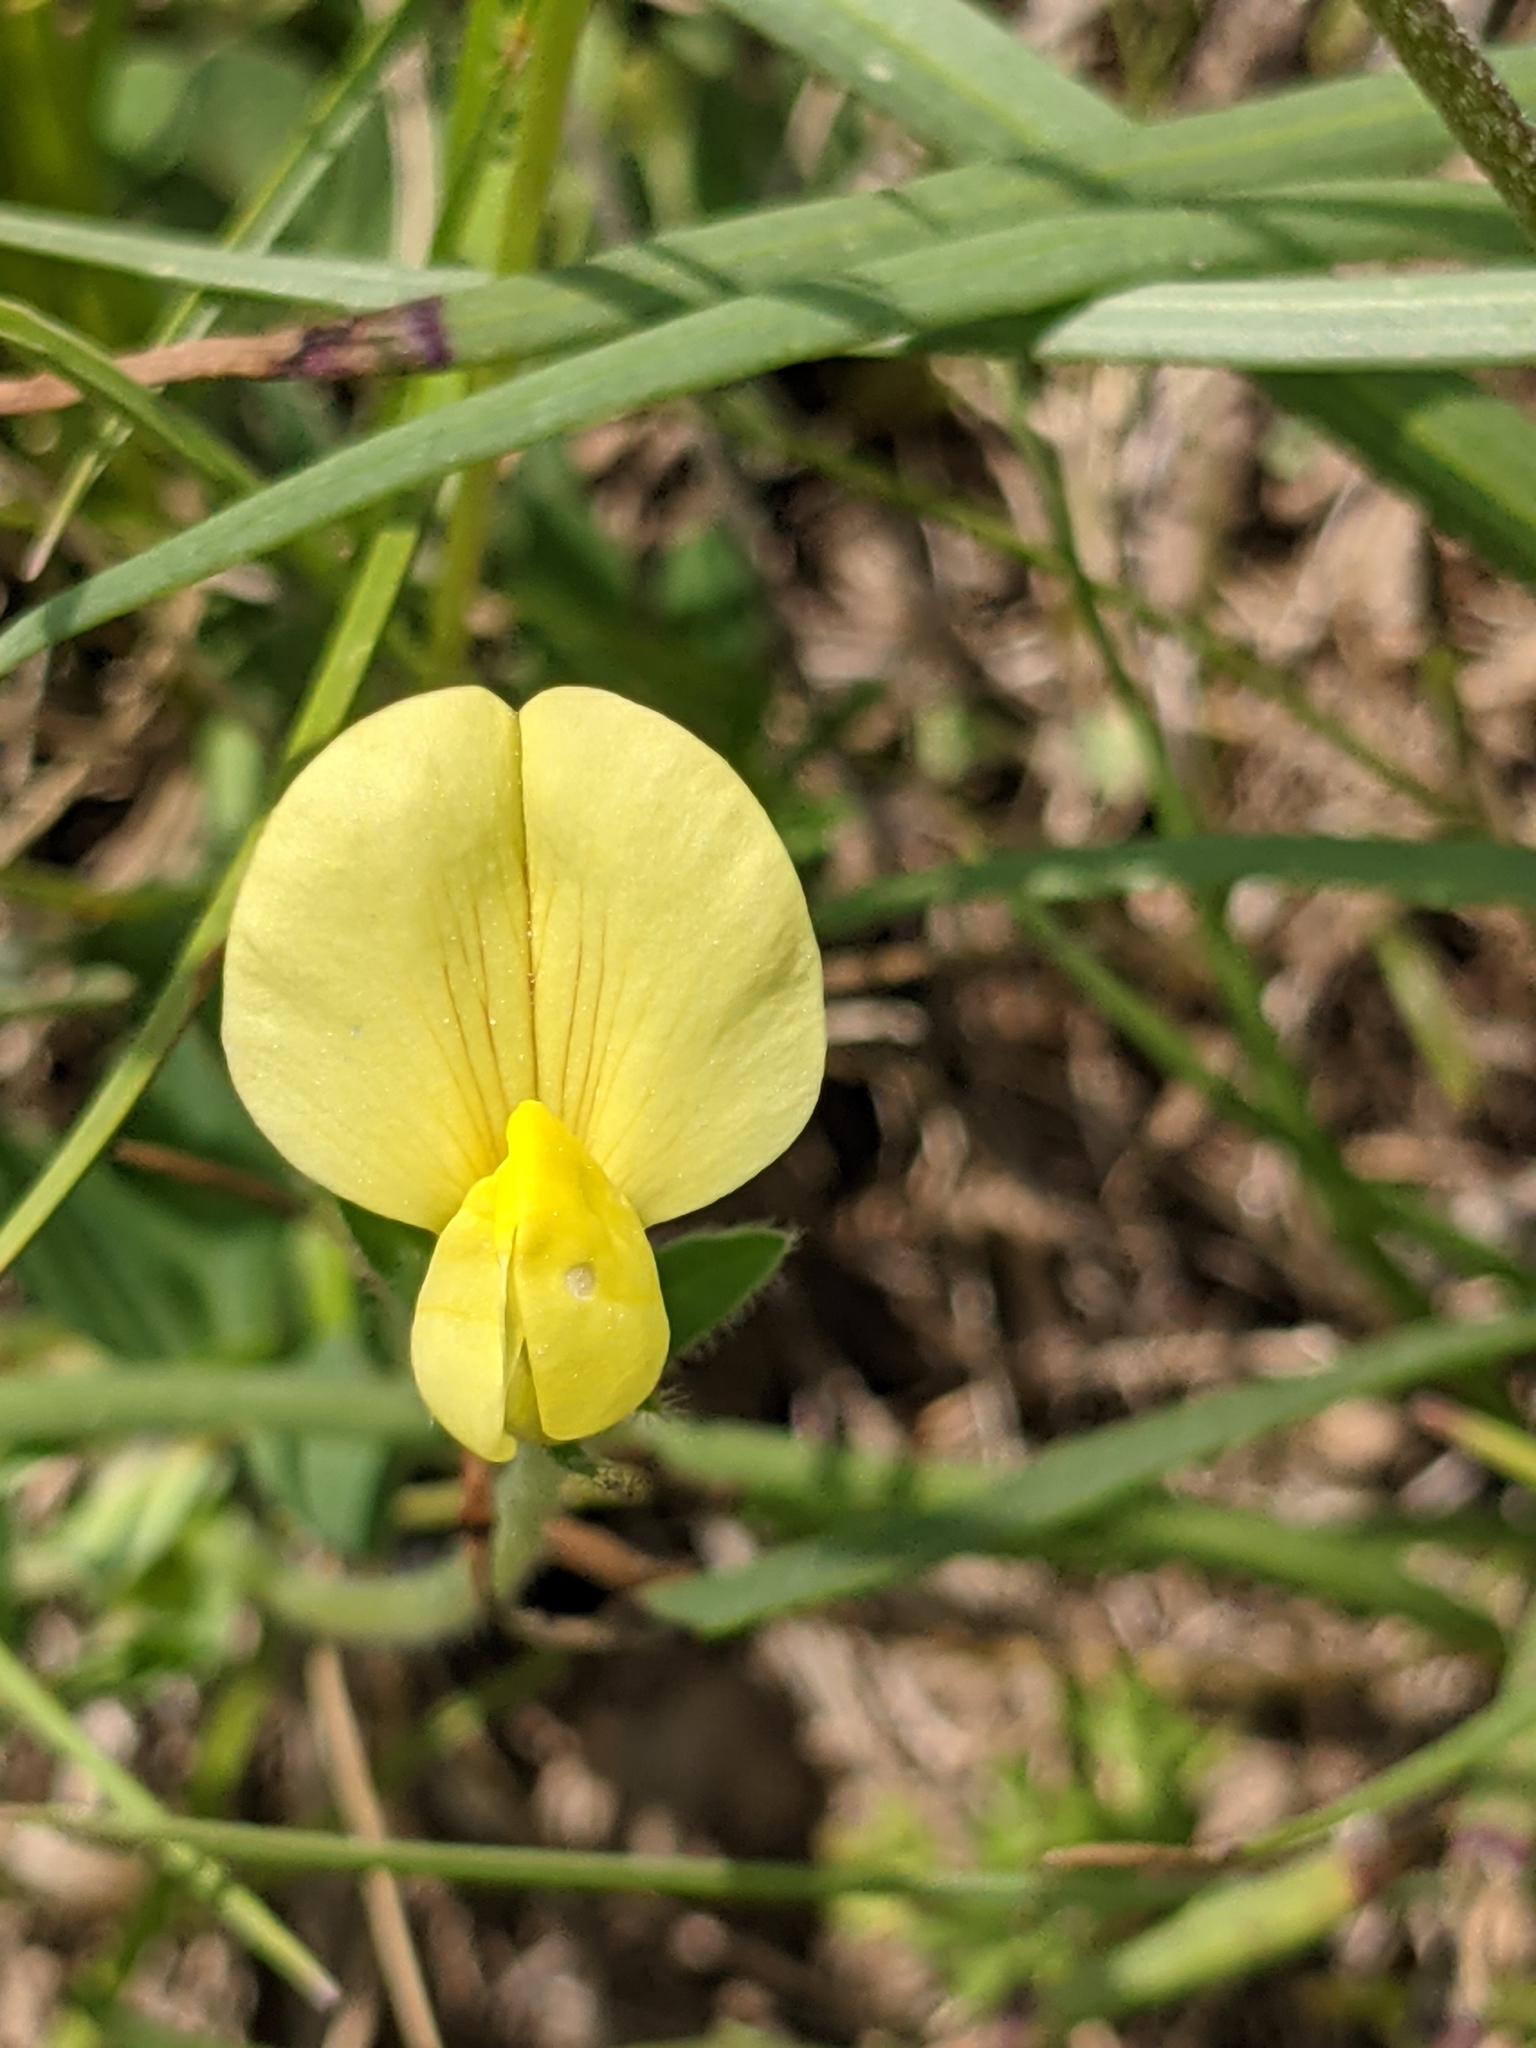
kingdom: Plantae
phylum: Tracheophyta
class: Magnoliopsida
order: Fabales
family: Fabaceae
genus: Lotus
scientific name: Lotus maritimus
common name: Dragon's-teeth
